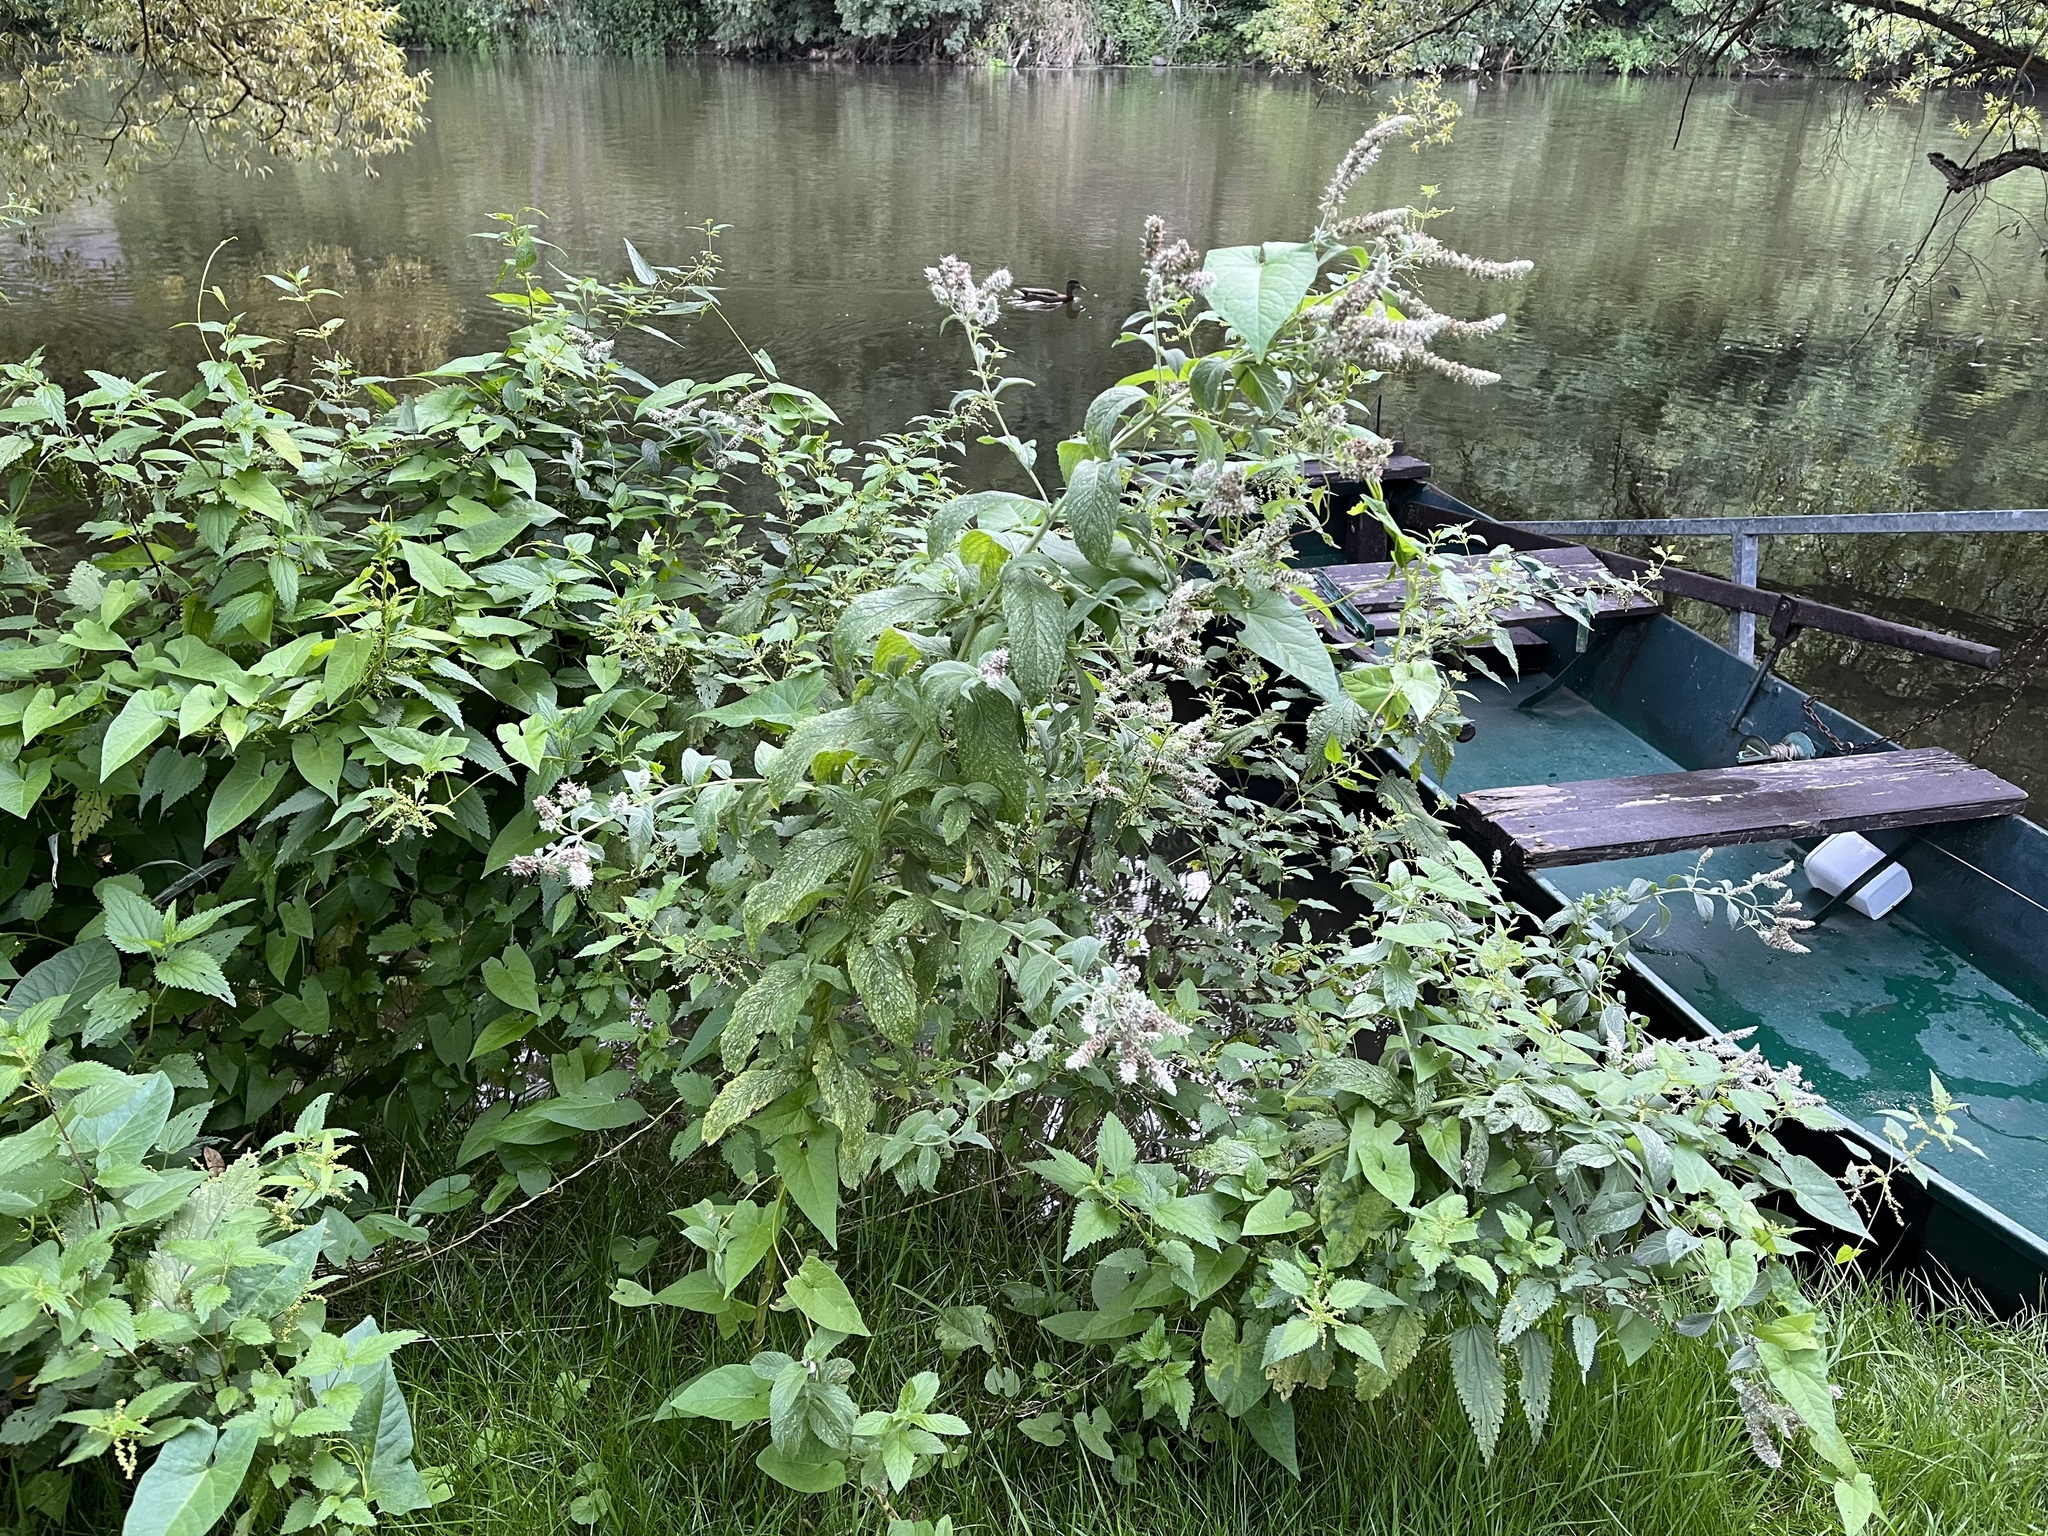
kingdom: Plantae
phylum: Tracheophyta
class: Magnoliopsida
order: Lamiales
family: Lamiaceae
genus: Mentha
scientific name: Mentha longifolia
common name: Horse mint
